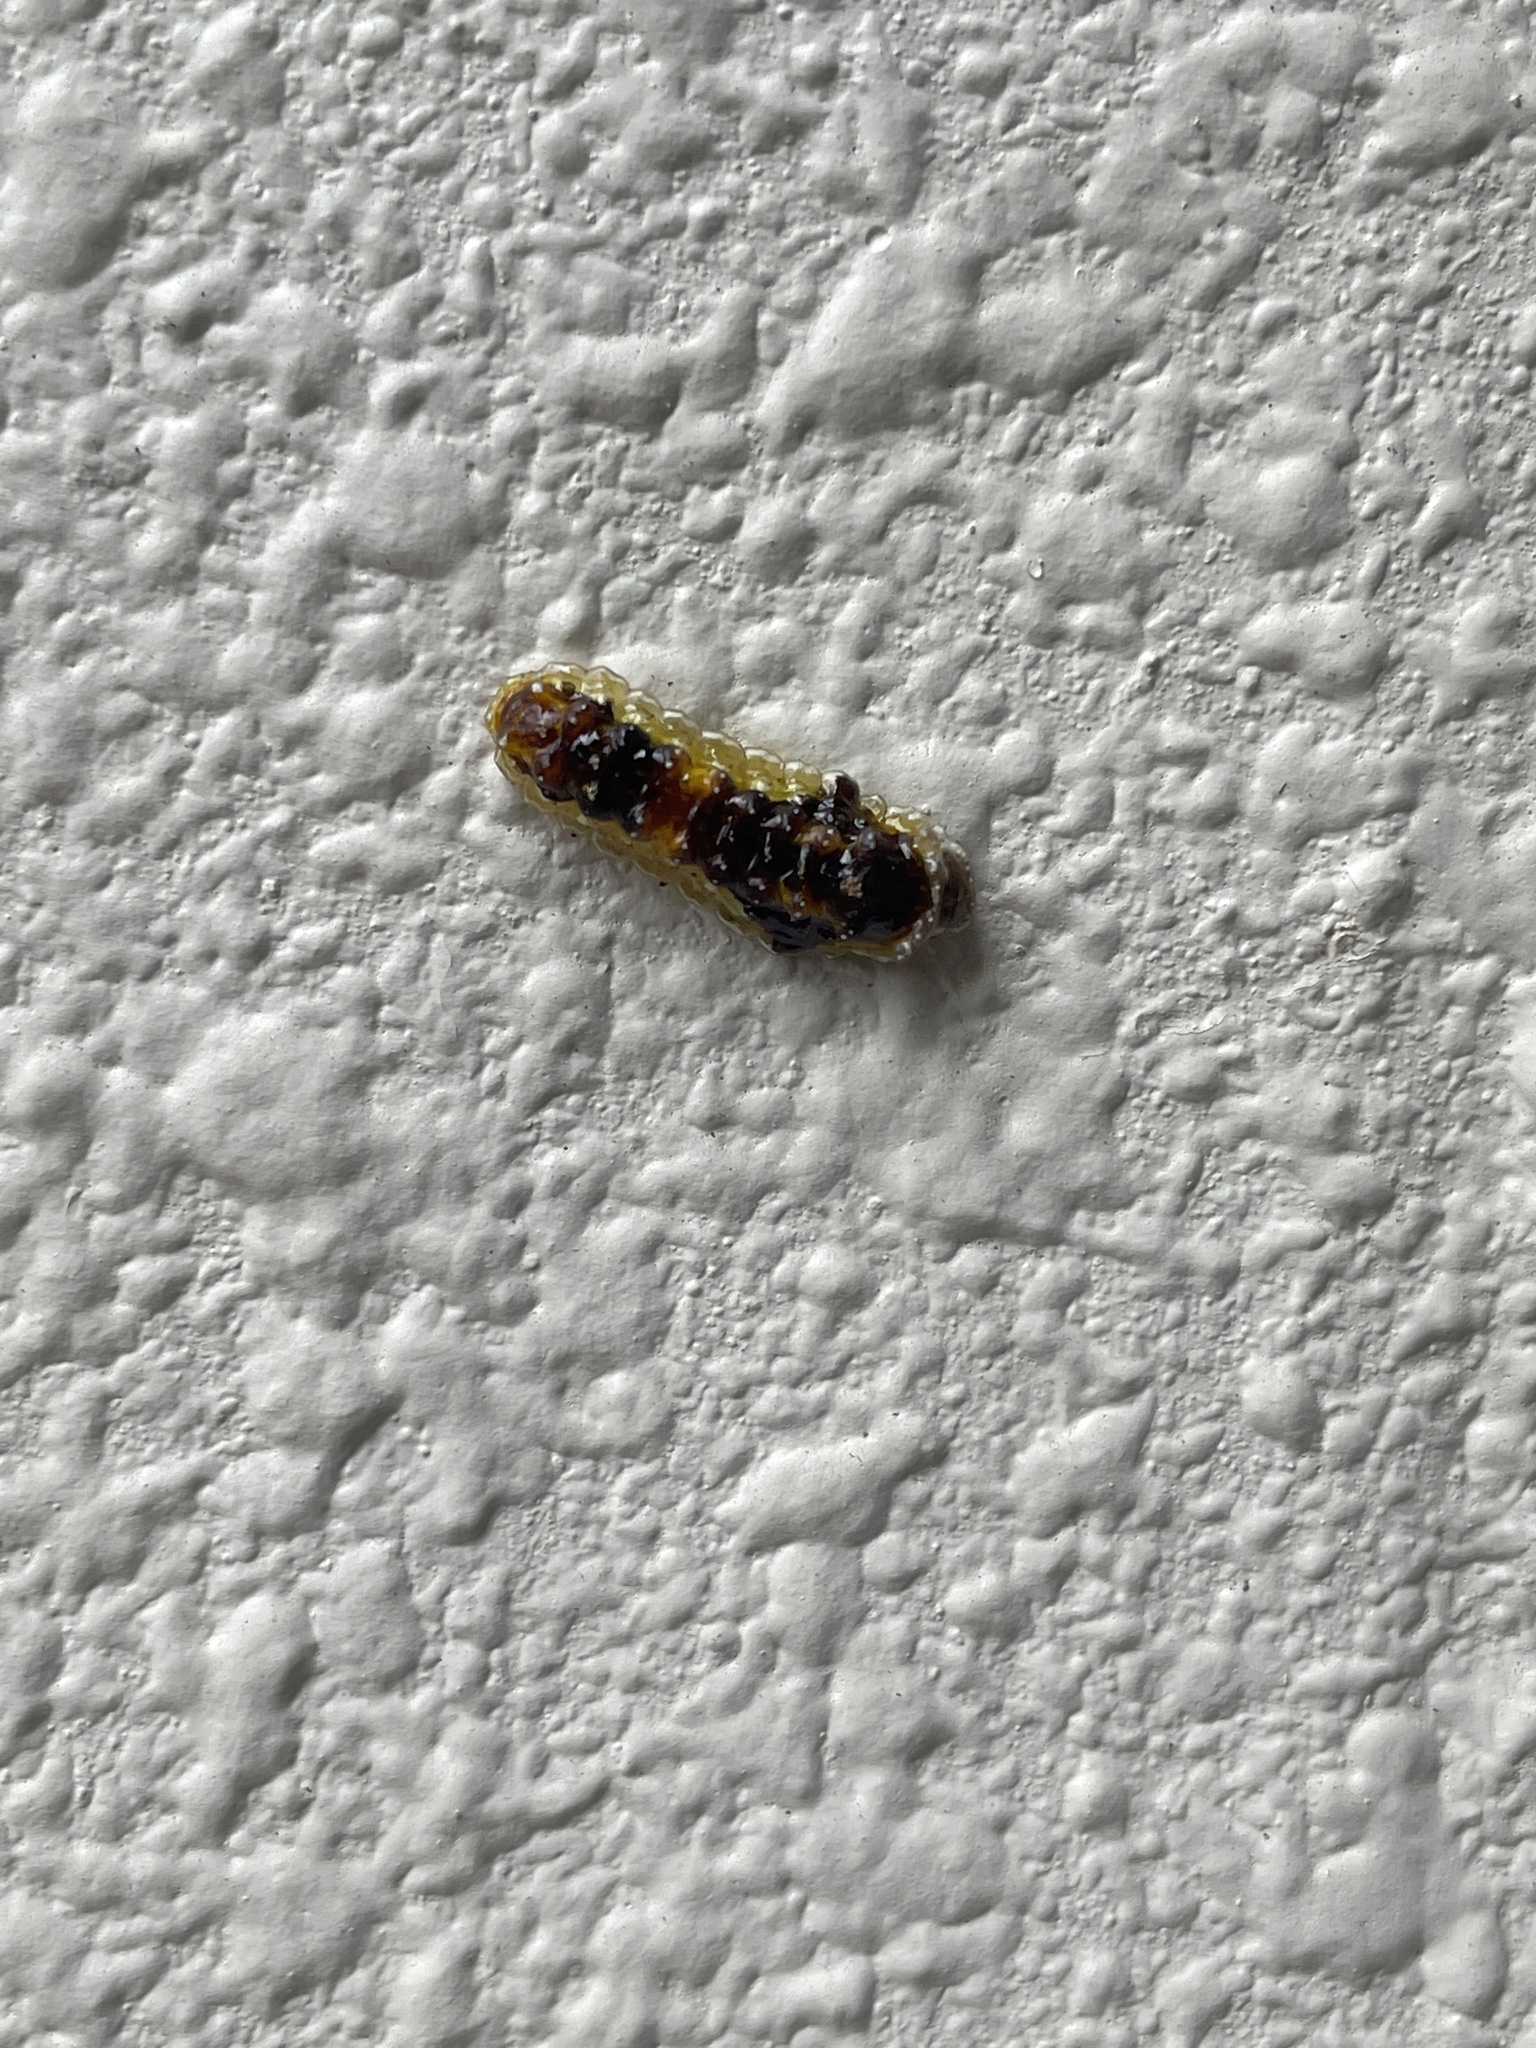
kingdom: Animalia
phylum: Arthropoda
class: Insecta
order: Lepidoptera
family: Phaudidae
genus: Phauda
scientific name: Phauda flammans
